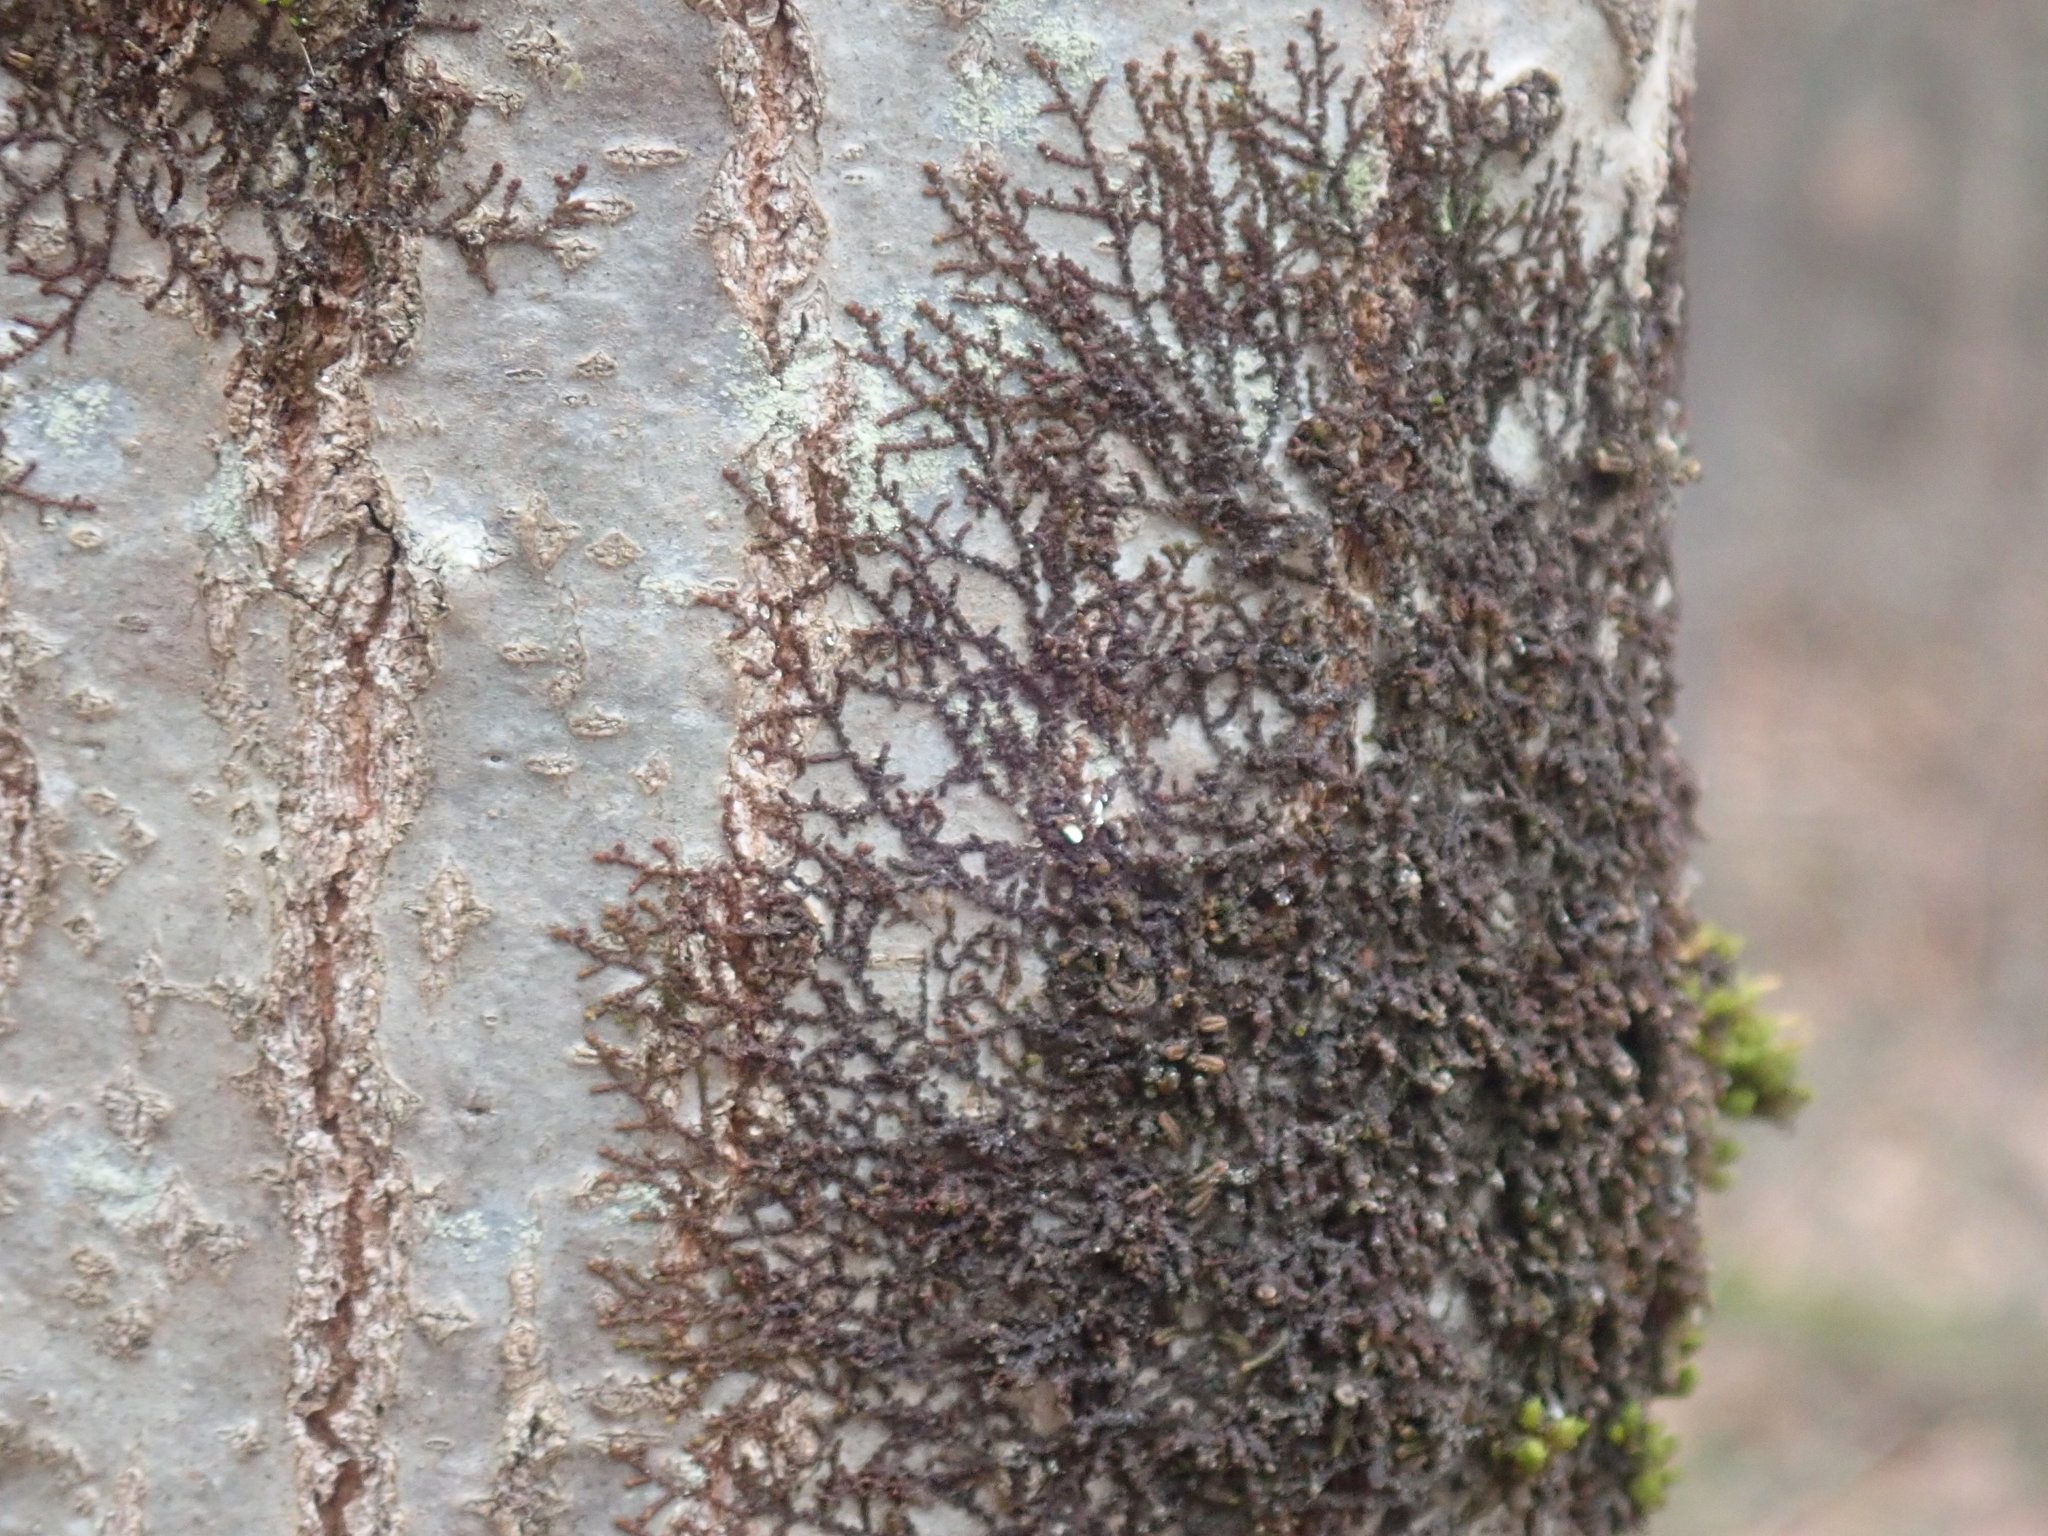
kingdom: Plantae
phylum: Marchantiophyta
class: Jungermanniopsida
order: Porellales
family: Frullaniaceae
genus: Frullania
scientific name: Frullania
